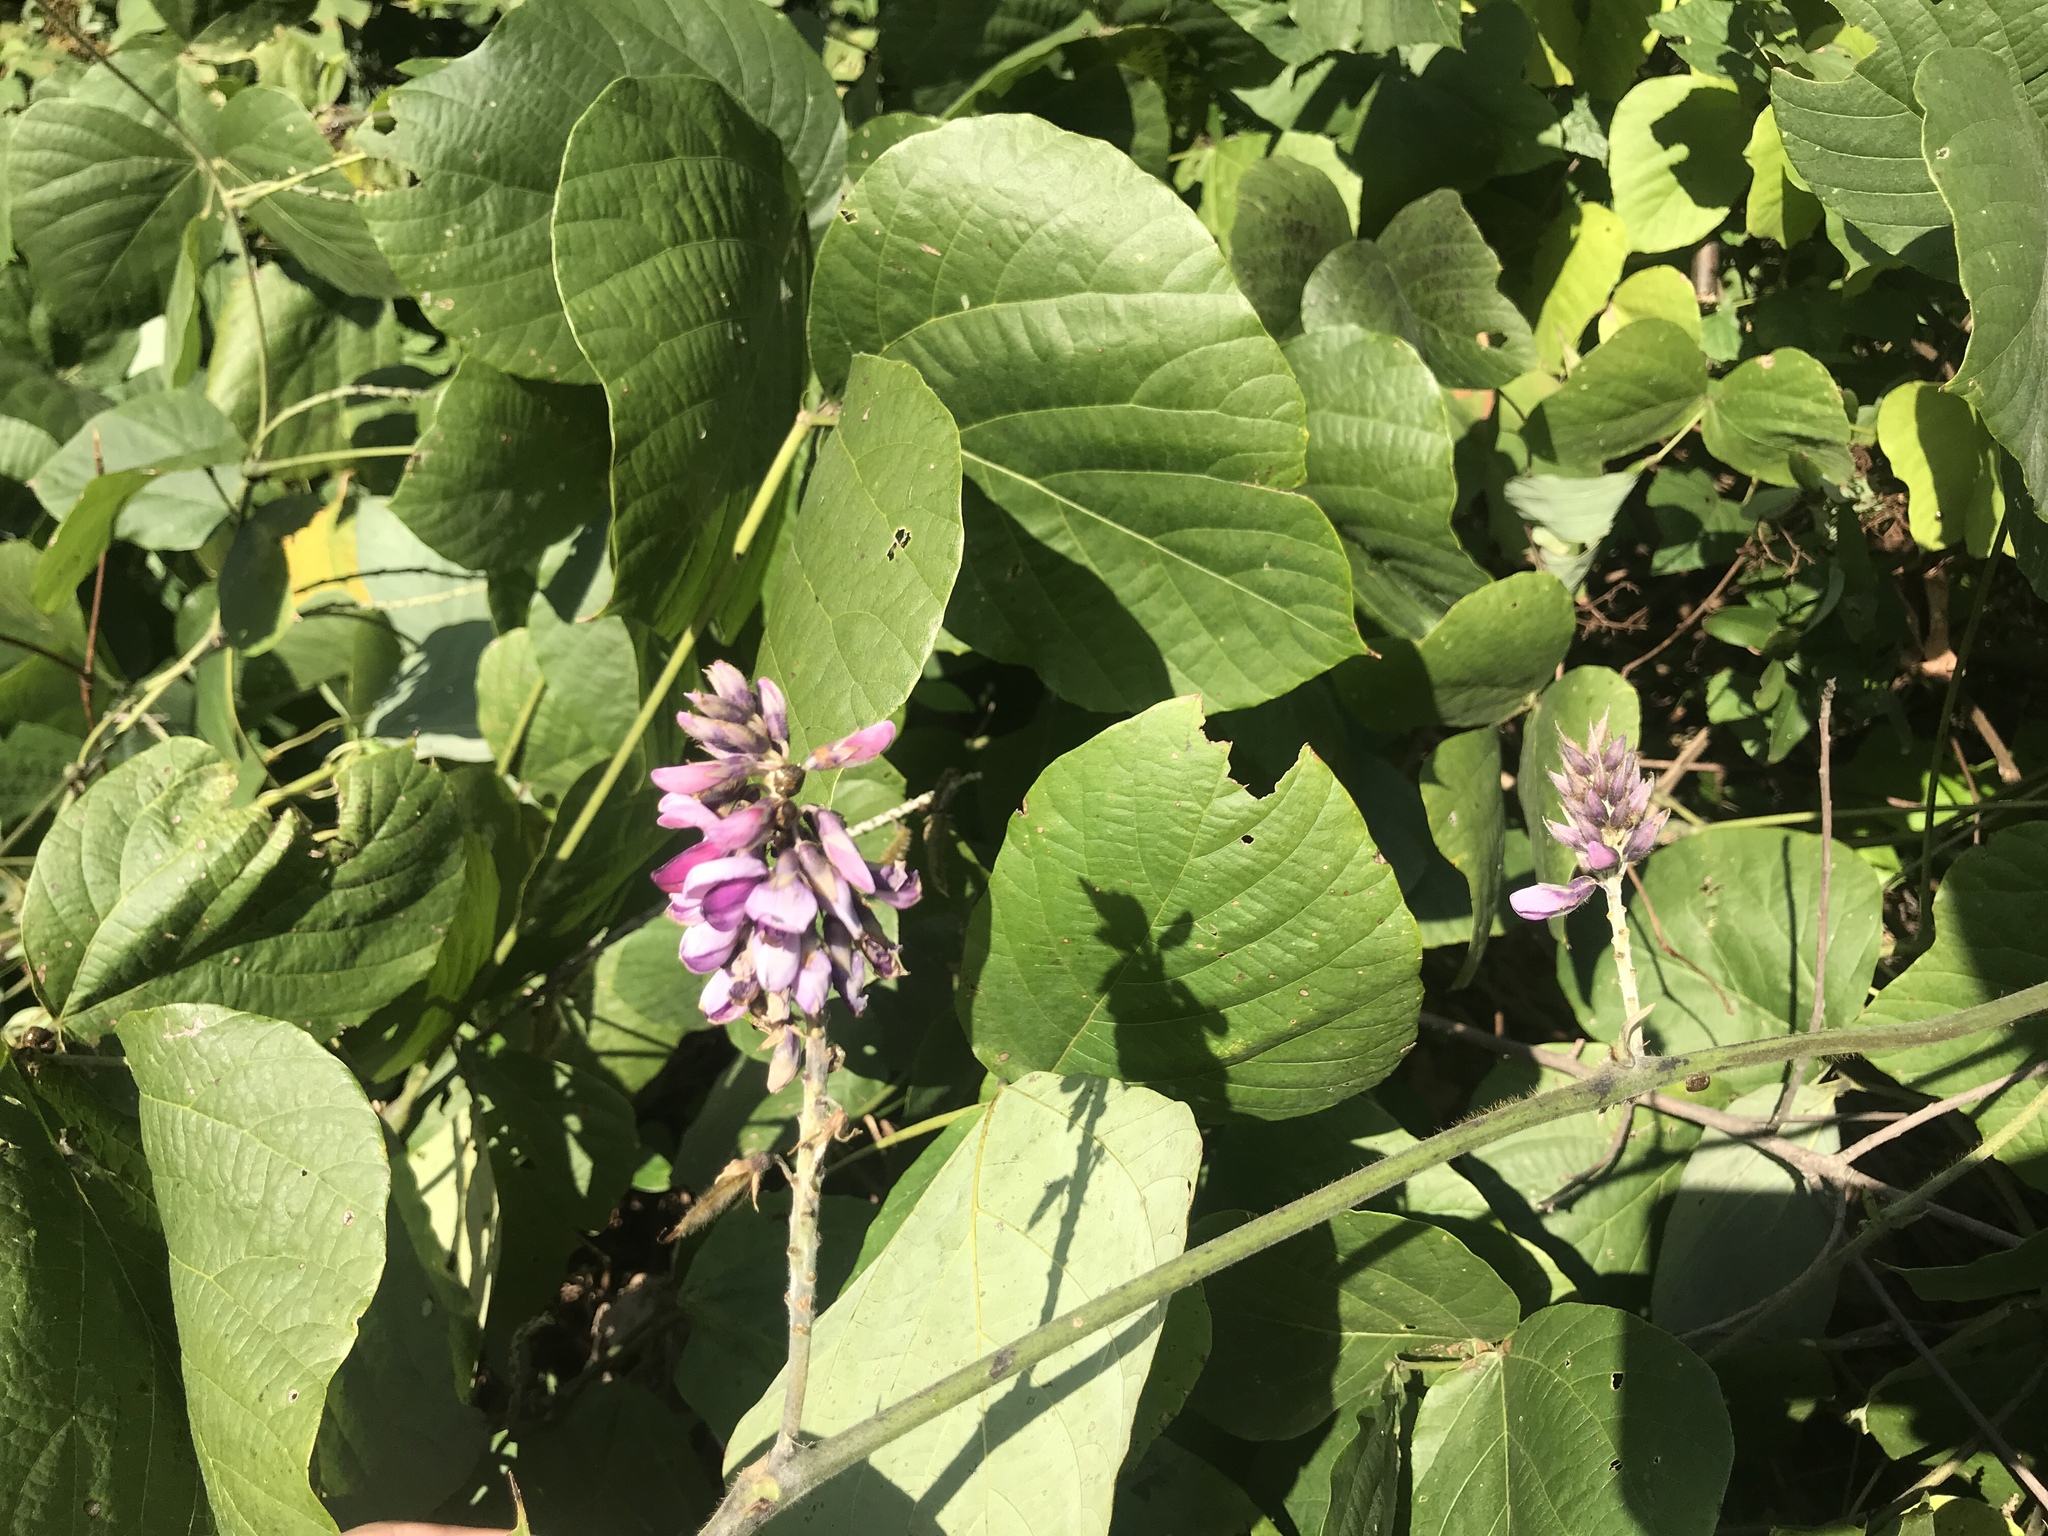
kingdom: Plantae
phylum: Tracheophyta
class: Magnoliopsida
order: Fabales
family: Fabaceae
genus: Pueraria
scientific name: Pueraria montana
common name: Kudzu
